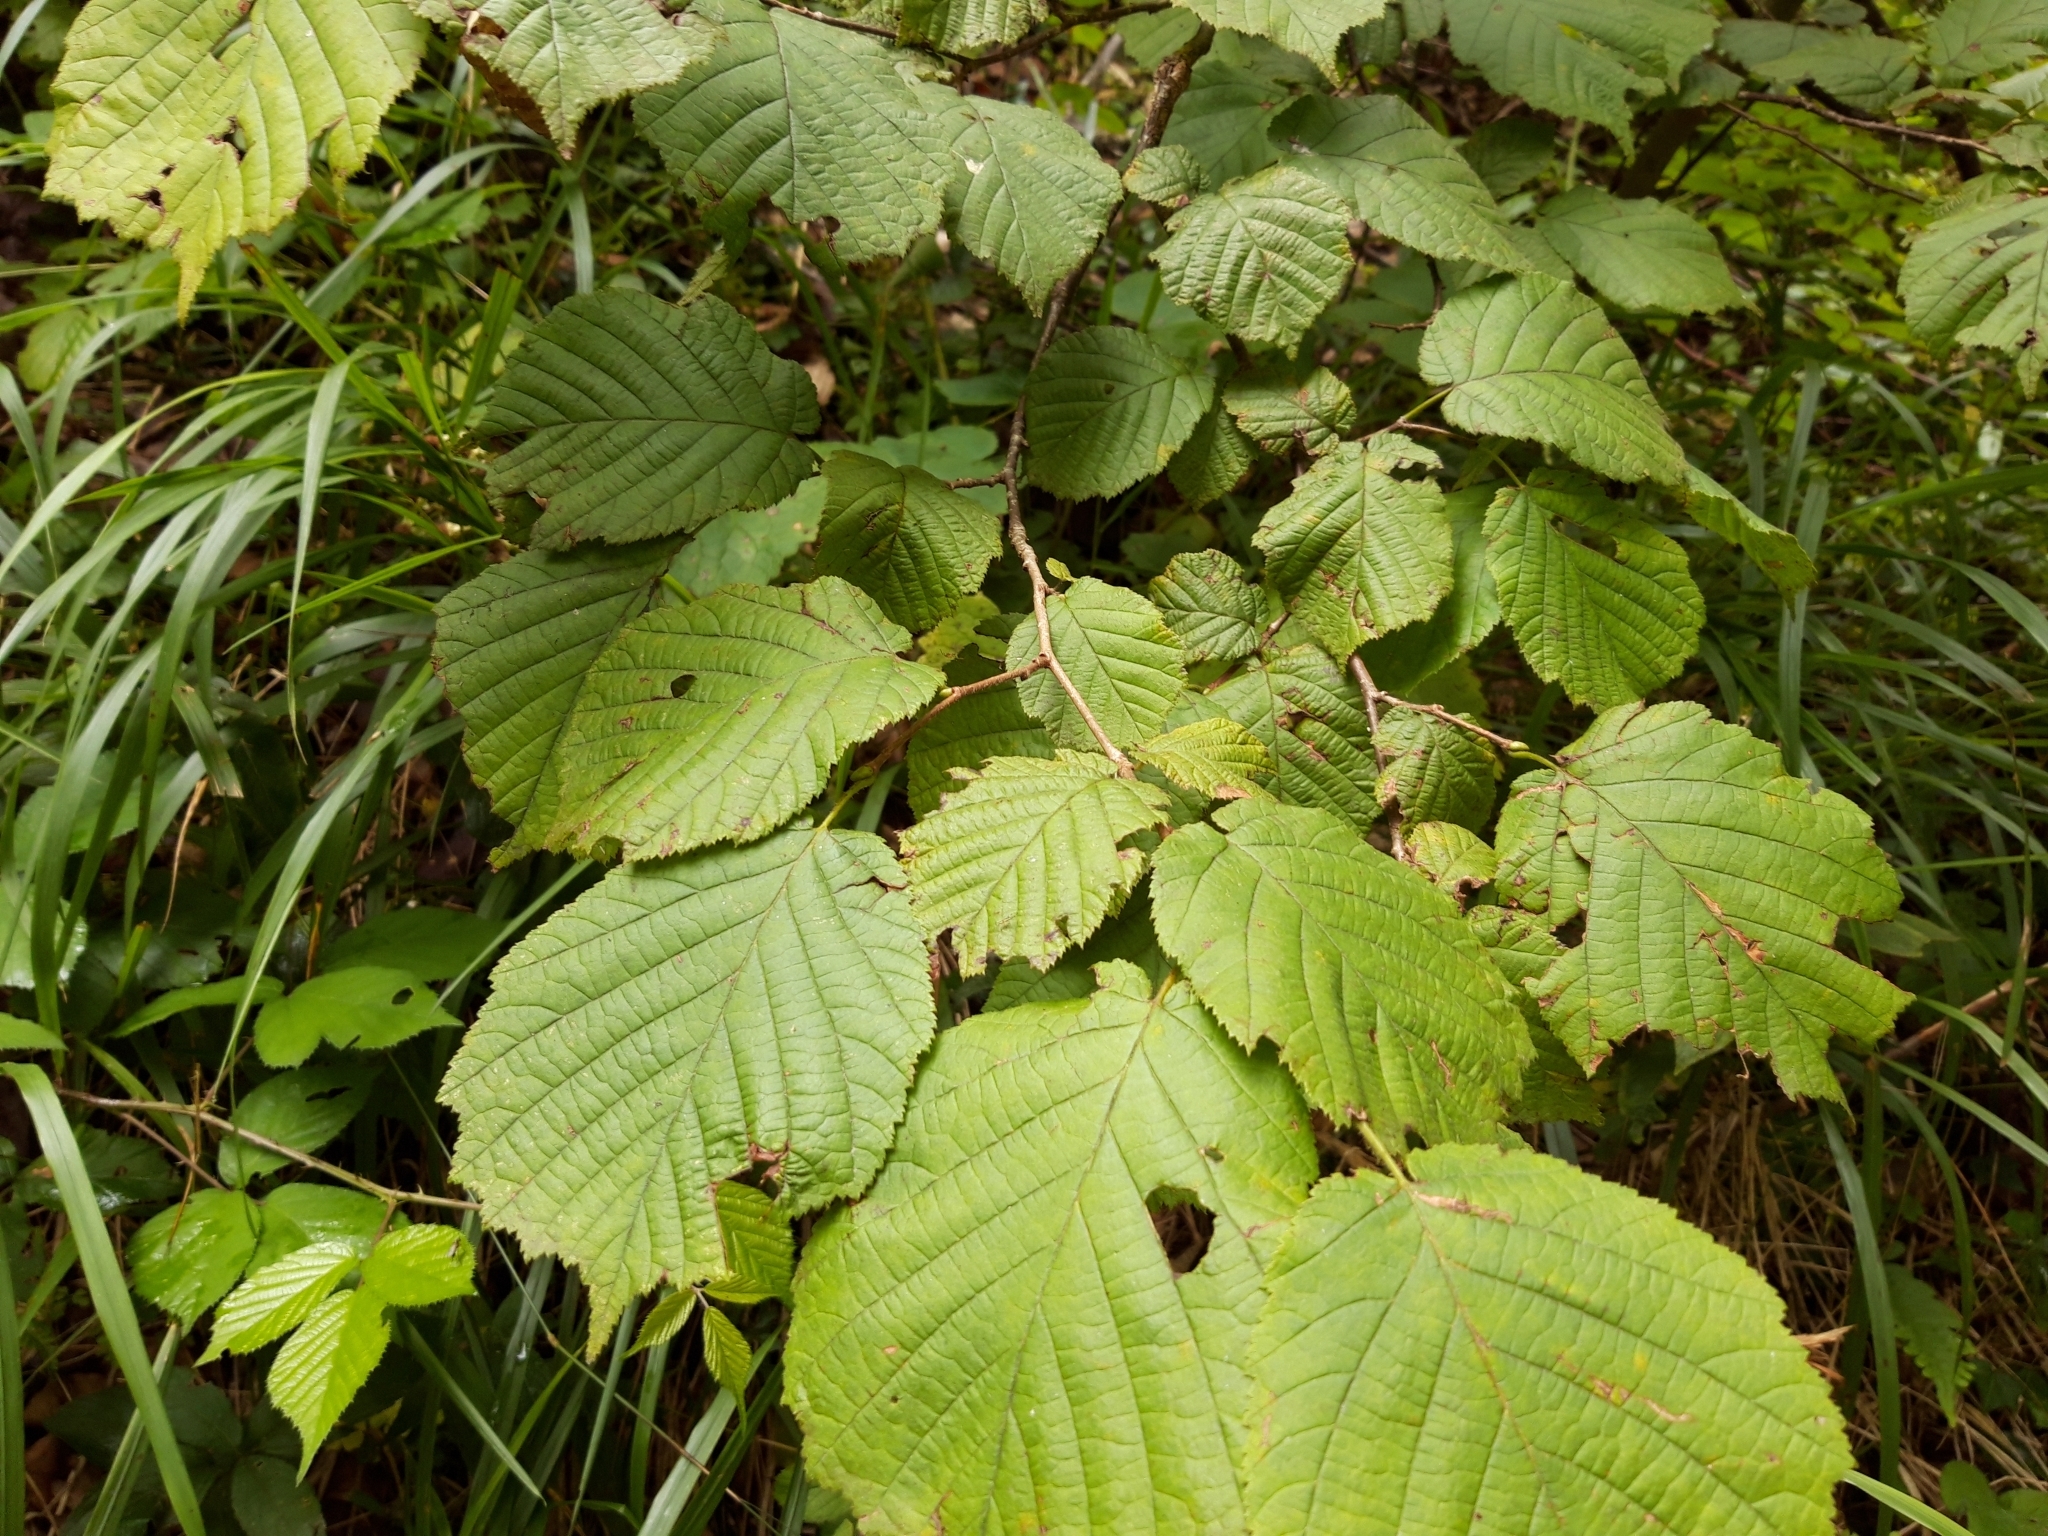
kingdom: Plantae
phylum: Tracheophyta
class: Magnoliopsida
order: Fagales
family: Betulaceae
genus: Corylus
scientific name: Corylus avellana
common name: European hazel
